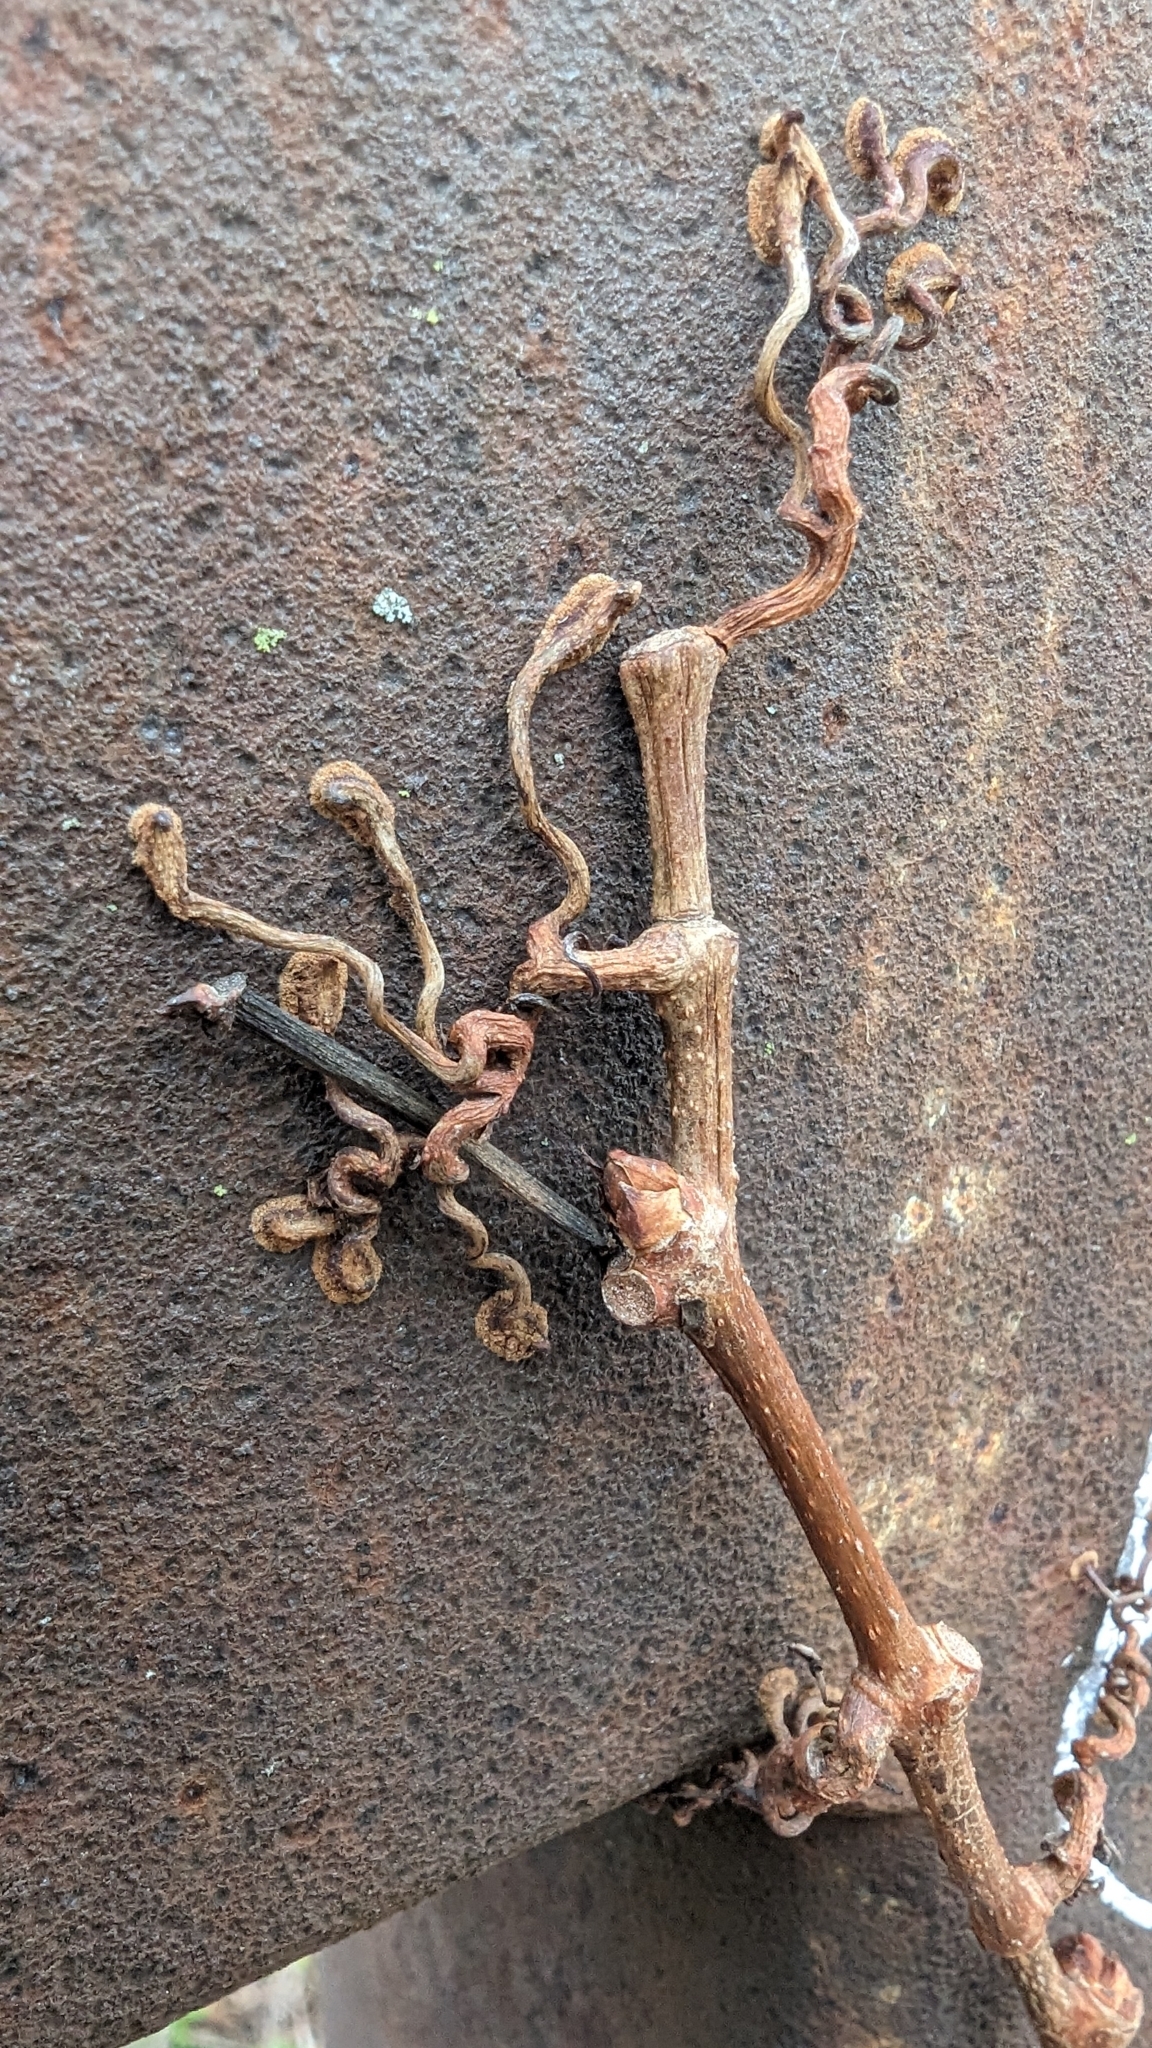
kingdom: Plantae
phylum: Tracheophyta
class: Magnoliopsida
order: Vitales
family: Vitaceae
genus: Parthenocissus
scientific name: Parthenocissus quinquefolia
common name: Virginia-creeper
